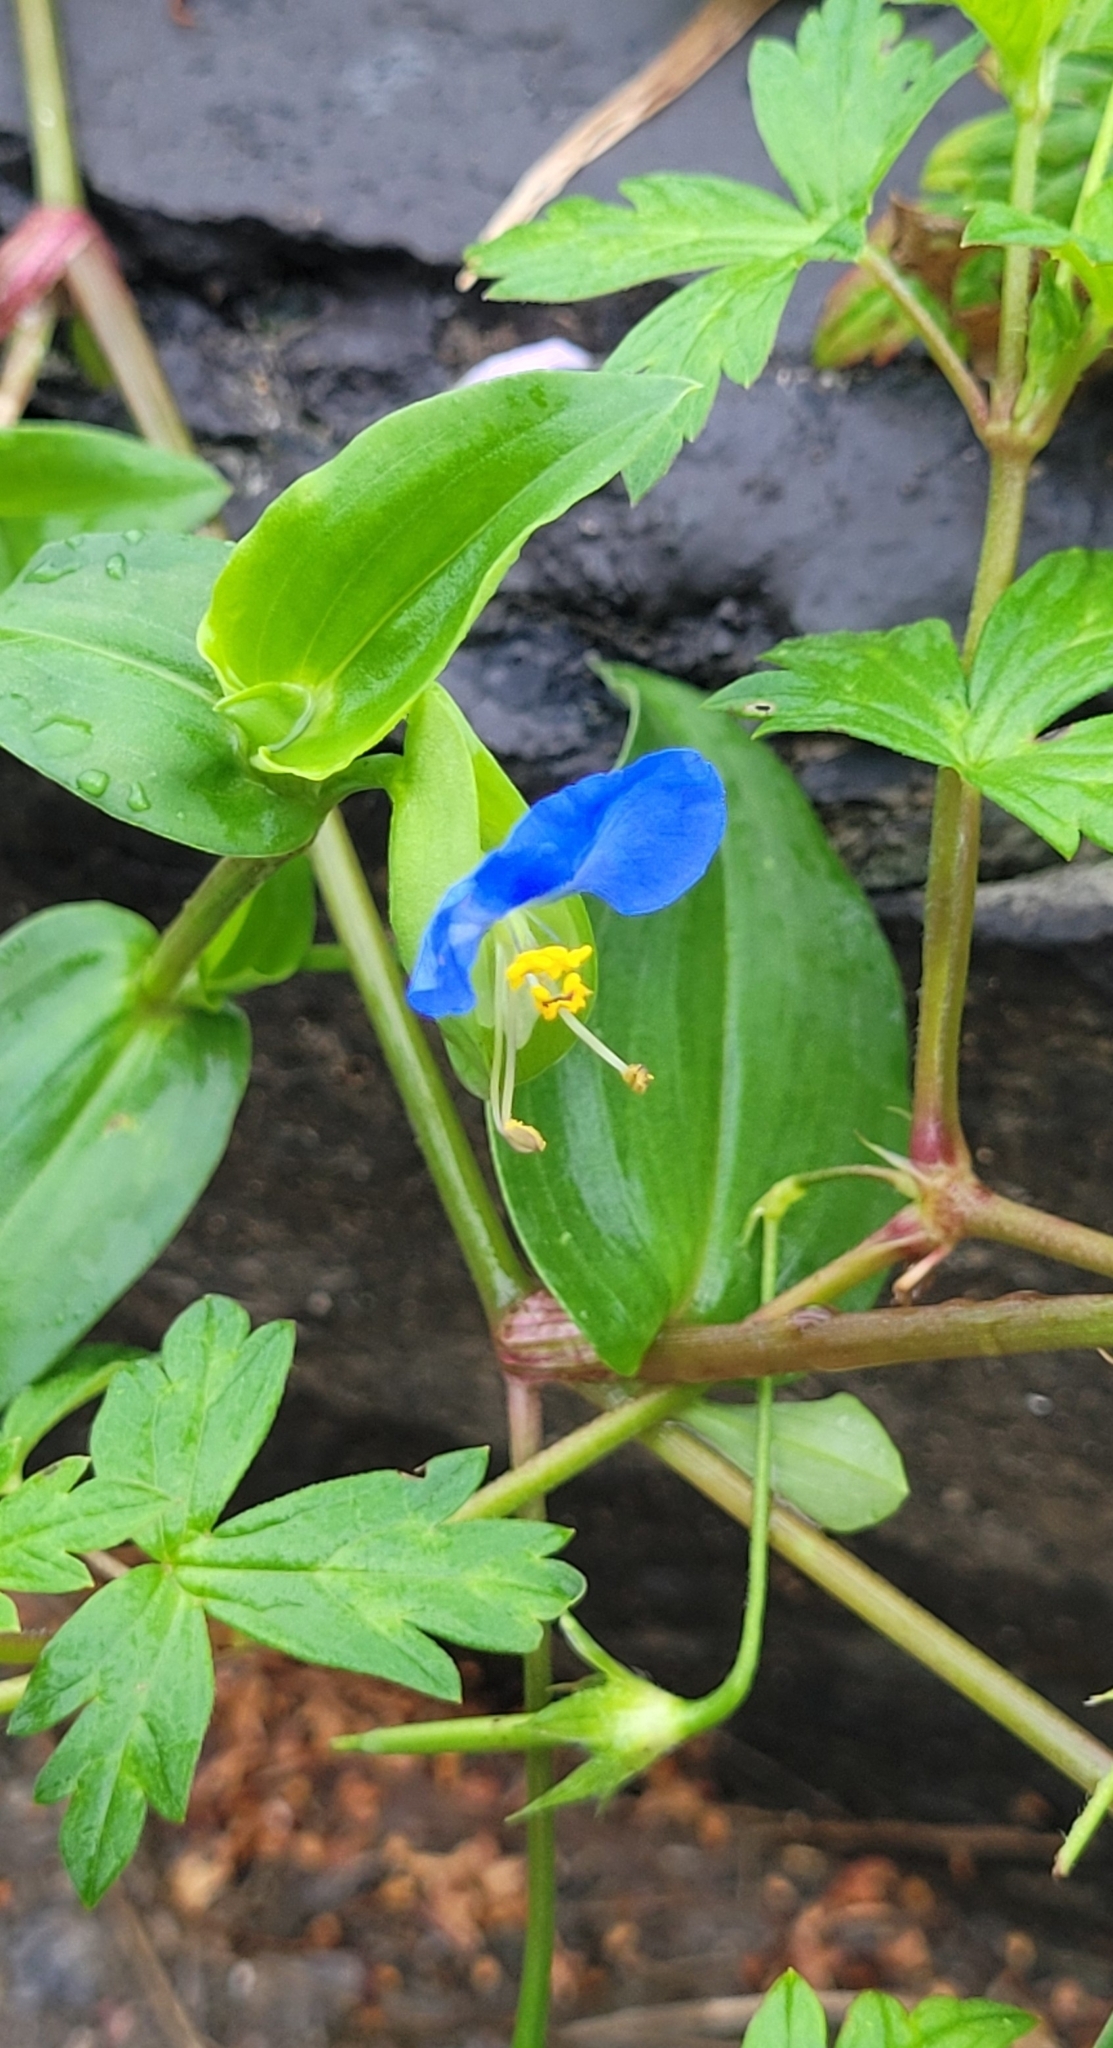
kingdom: Plantae
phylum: Tracheophyta
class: Liliopsida
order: Commelinales
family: Commelinaceae
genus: Commelina
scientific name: Commelina communis
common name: Asiatic dayflower
